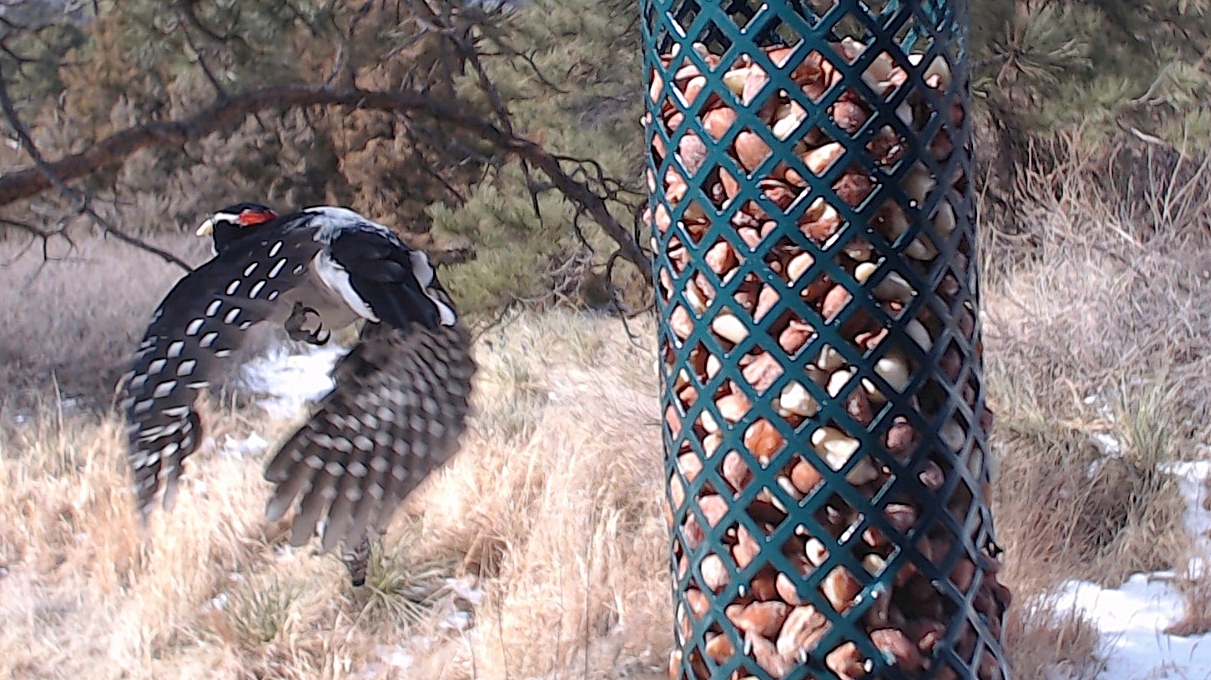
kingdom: Animalia
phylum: Chordata
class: Aves
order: Piciformes
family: Picidae
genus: Leuconotopicus
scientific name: Leuconotopicus villosus
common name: Hairy woodpecker
